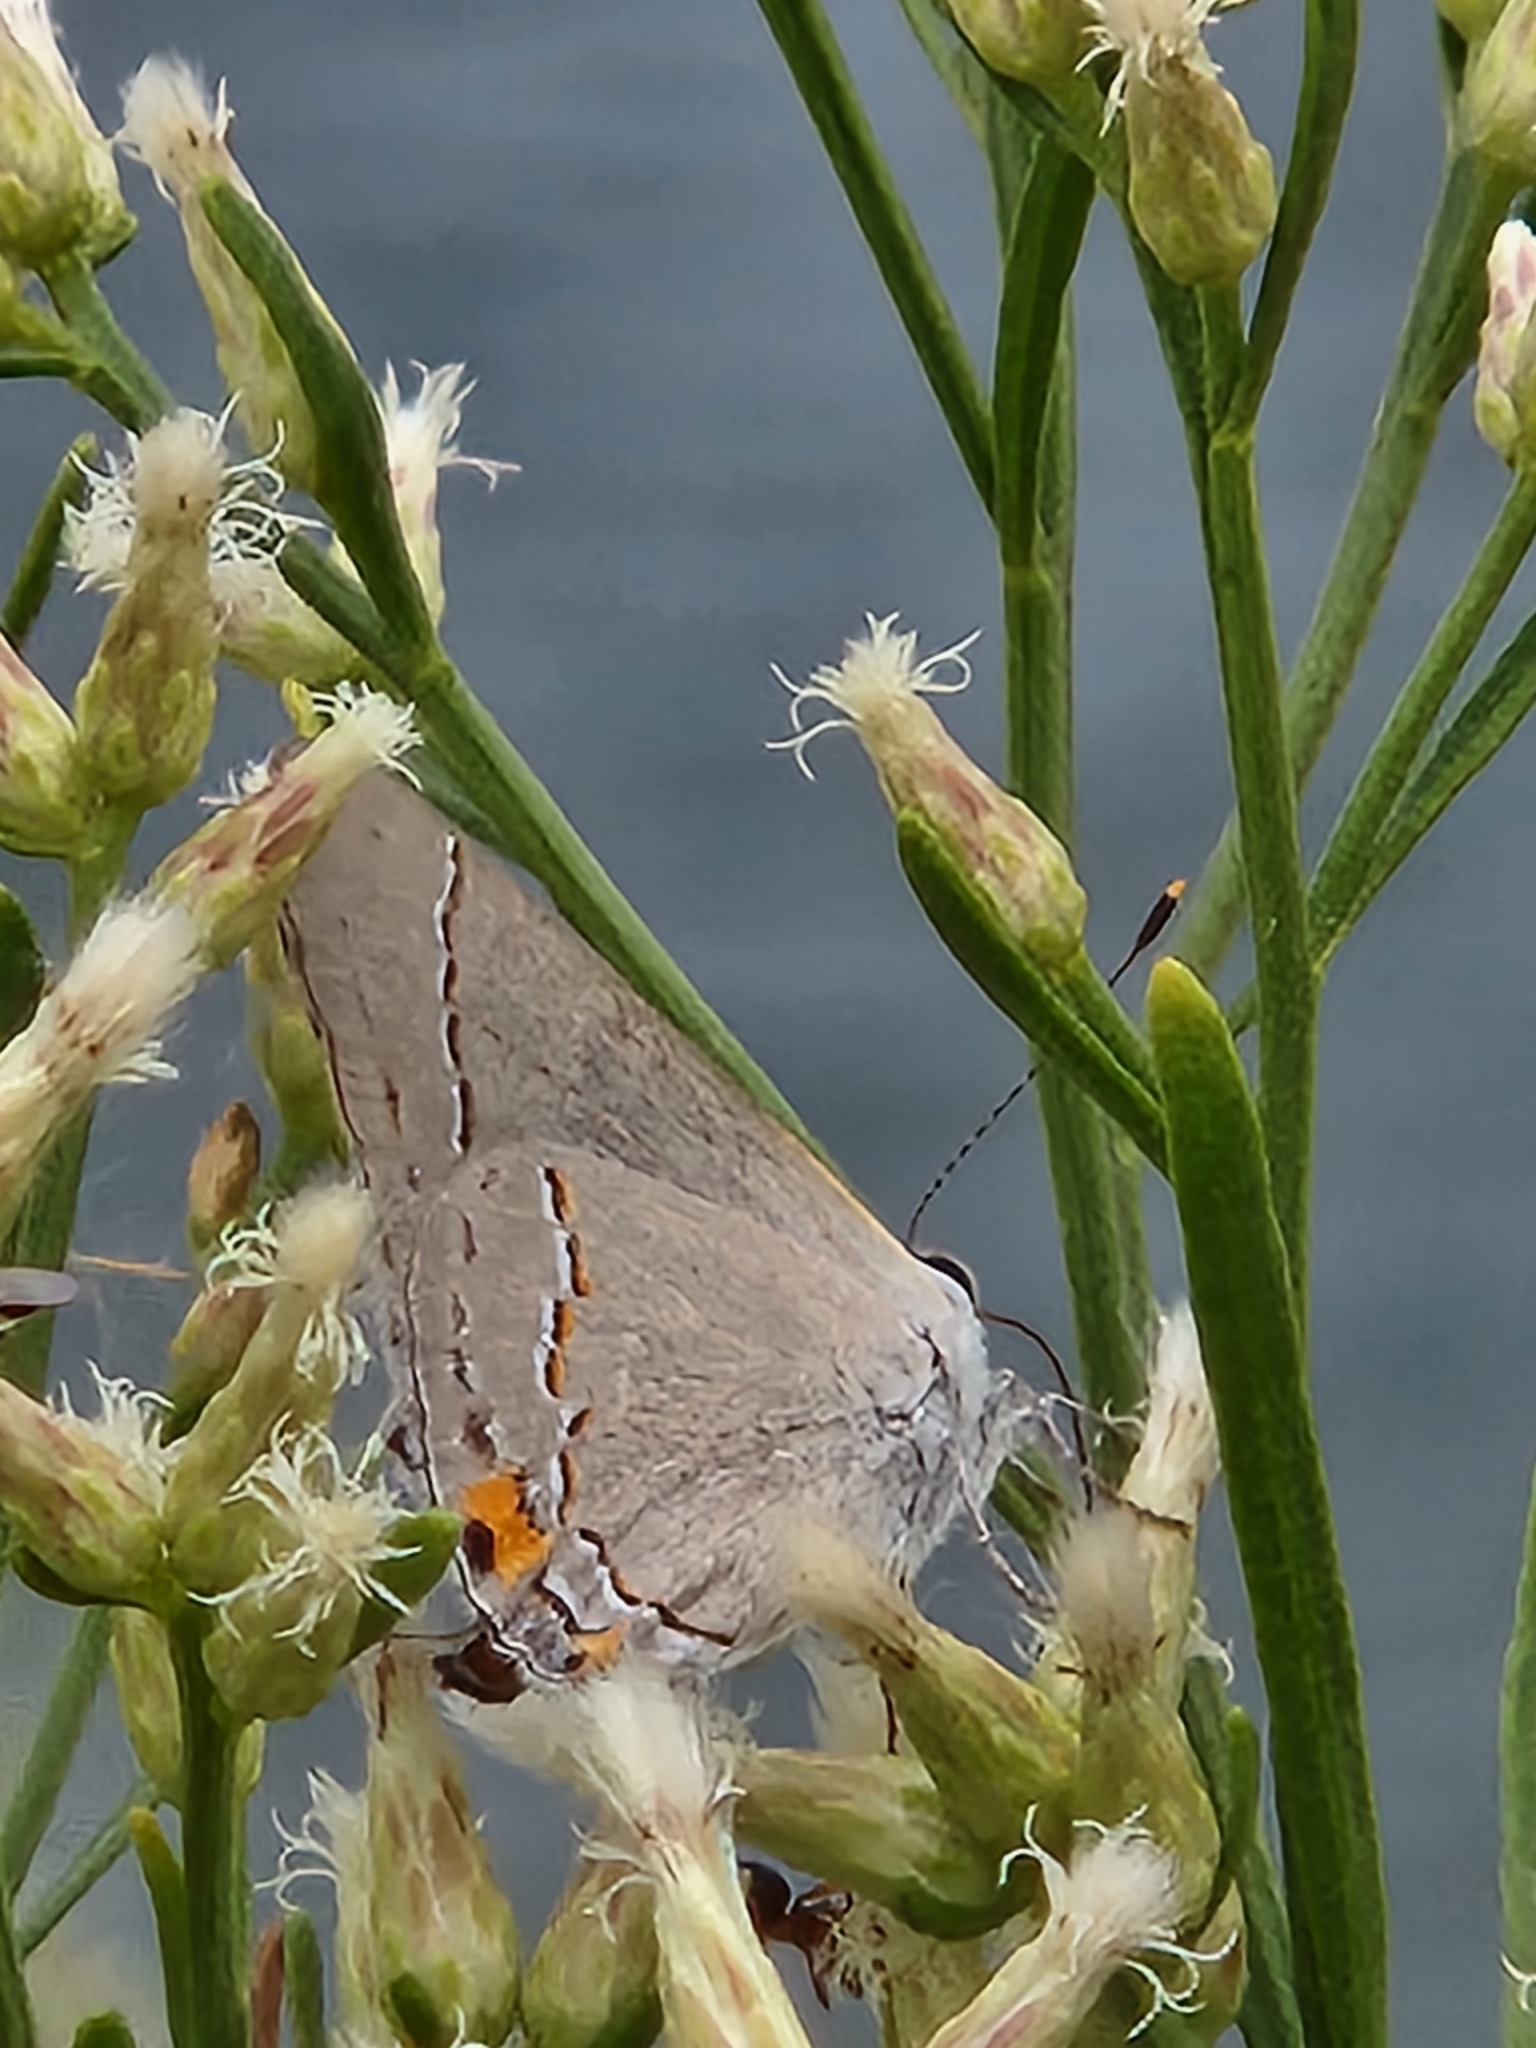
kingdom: Animalia
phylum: Arthropoda
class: Insecta
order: Lepidoptera
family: Lycaenidae
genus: Strymon
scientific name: Strymon melinus
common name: Gray hairstreak
